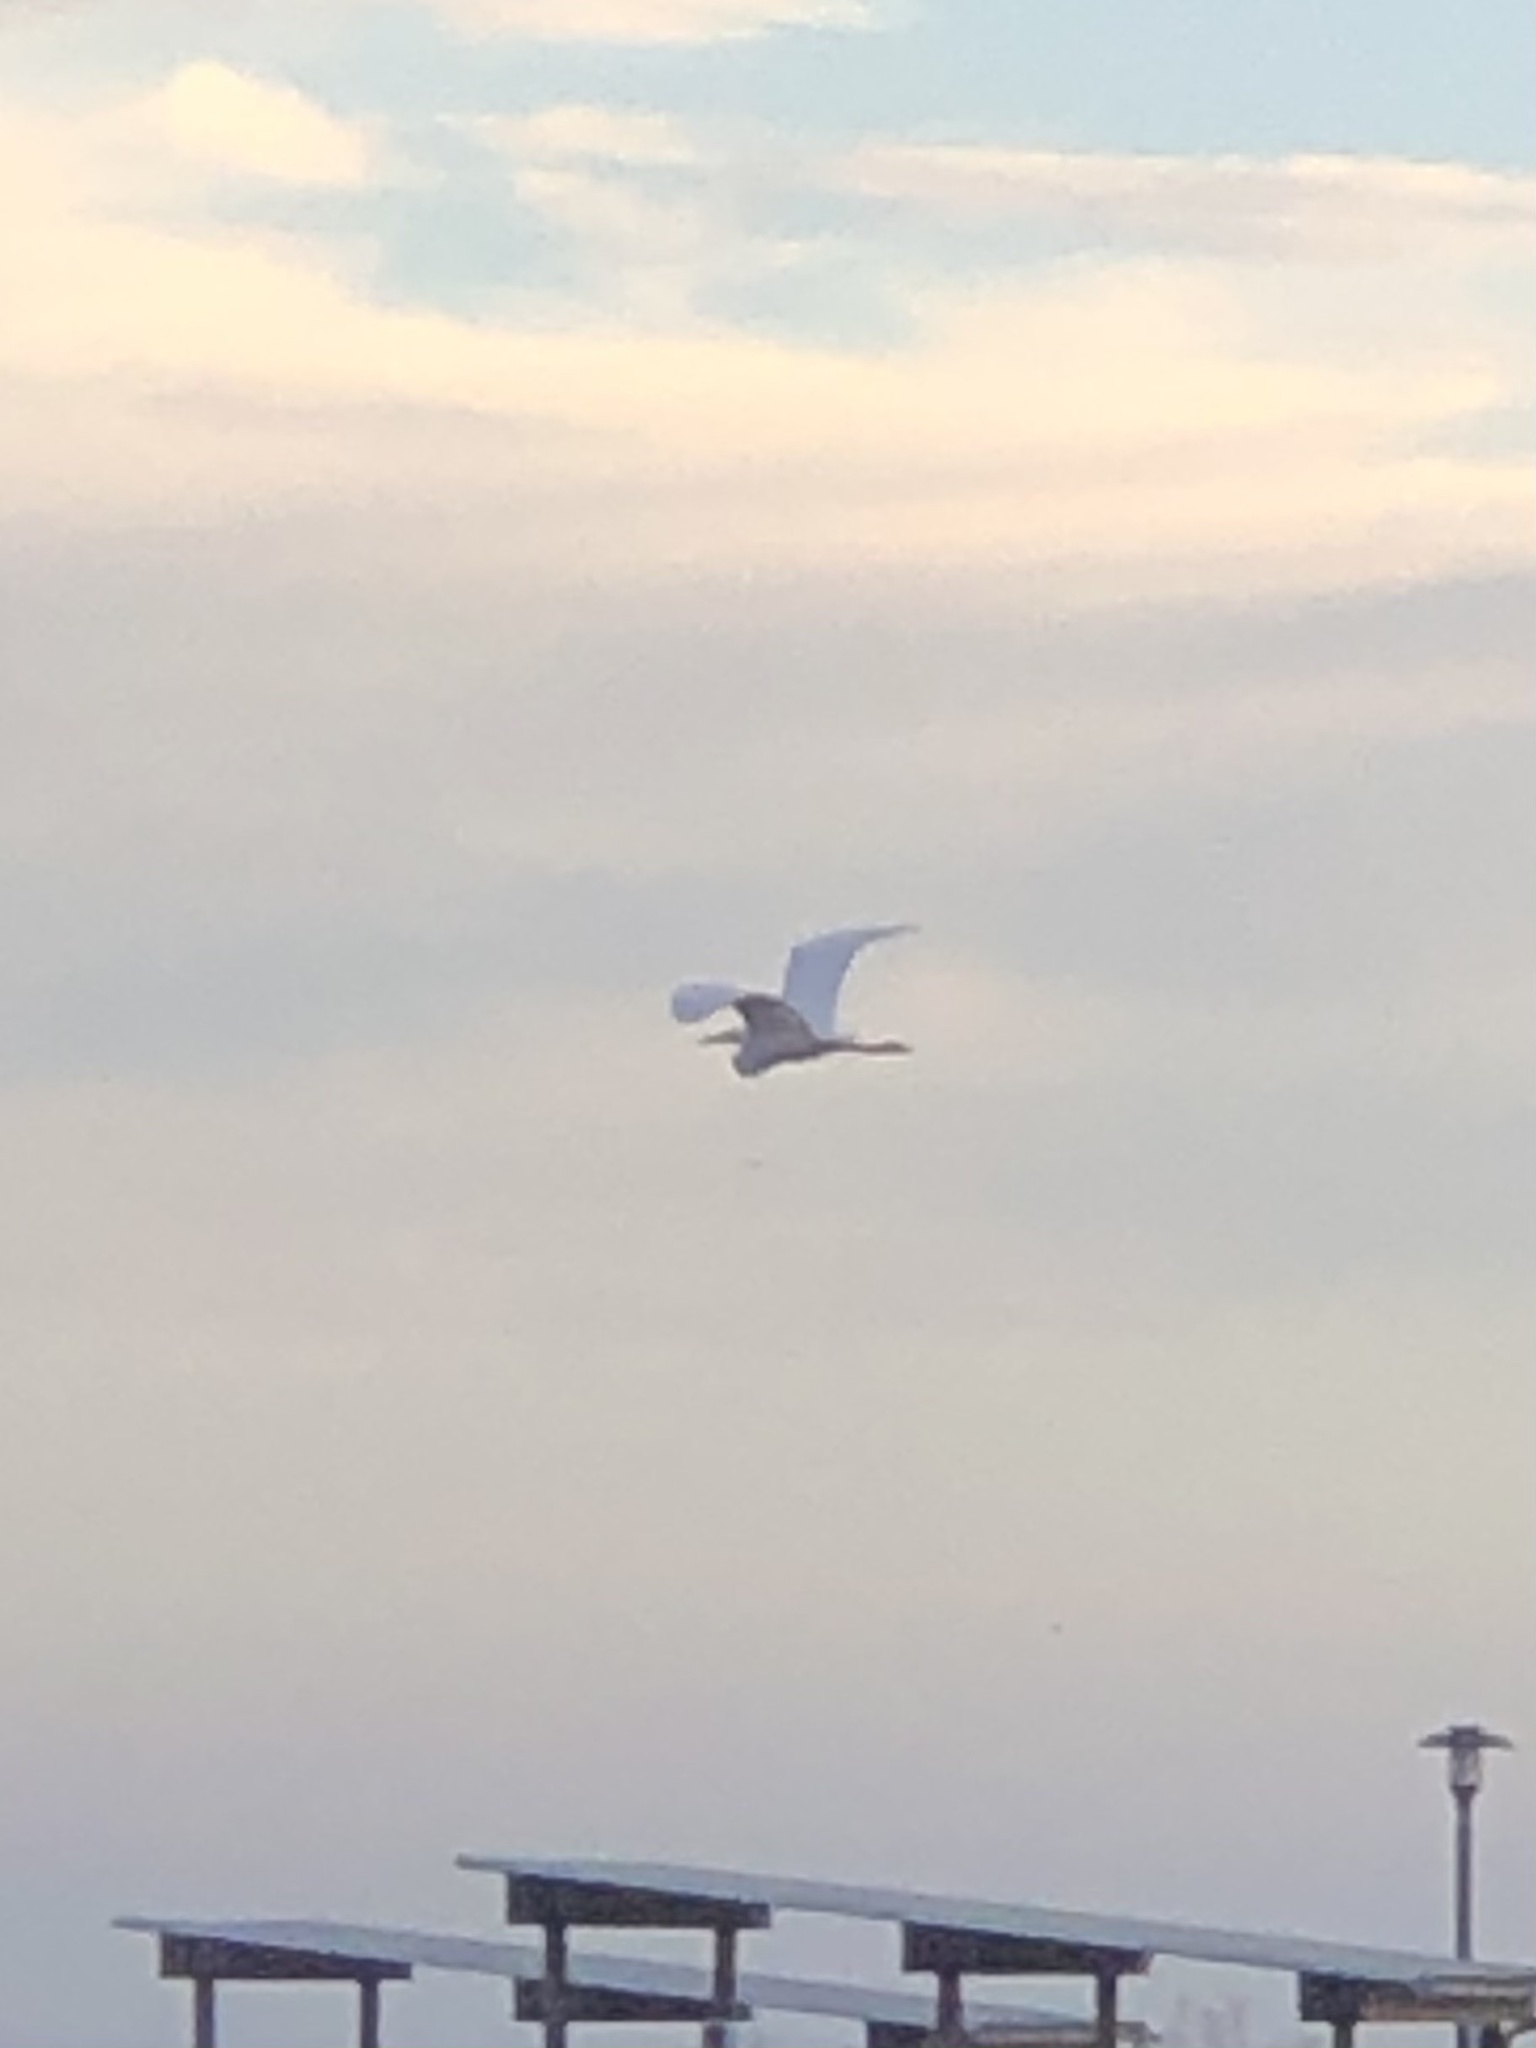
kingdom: Animalia
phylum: Chordata
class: Aves
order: Pelecaniformes
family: Ardeidae
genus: Ardea
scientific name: Ardea alba
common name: Great egret
